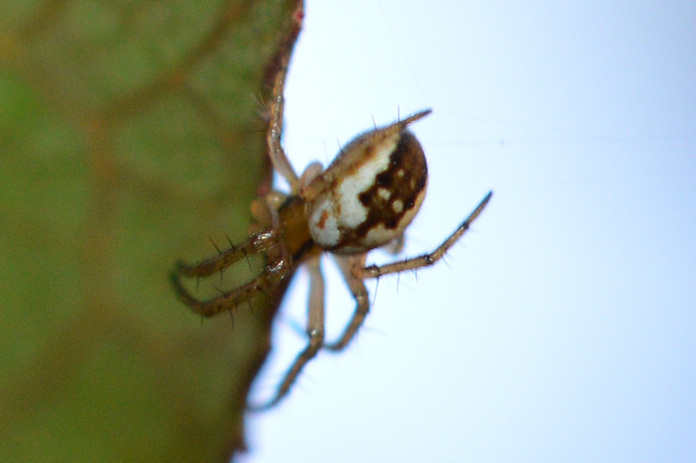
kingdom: Animalia
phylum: Arthropoda
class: Arachnida
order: Araneae
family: Araneidae
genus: Mangora
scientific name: Mangora acalypha
